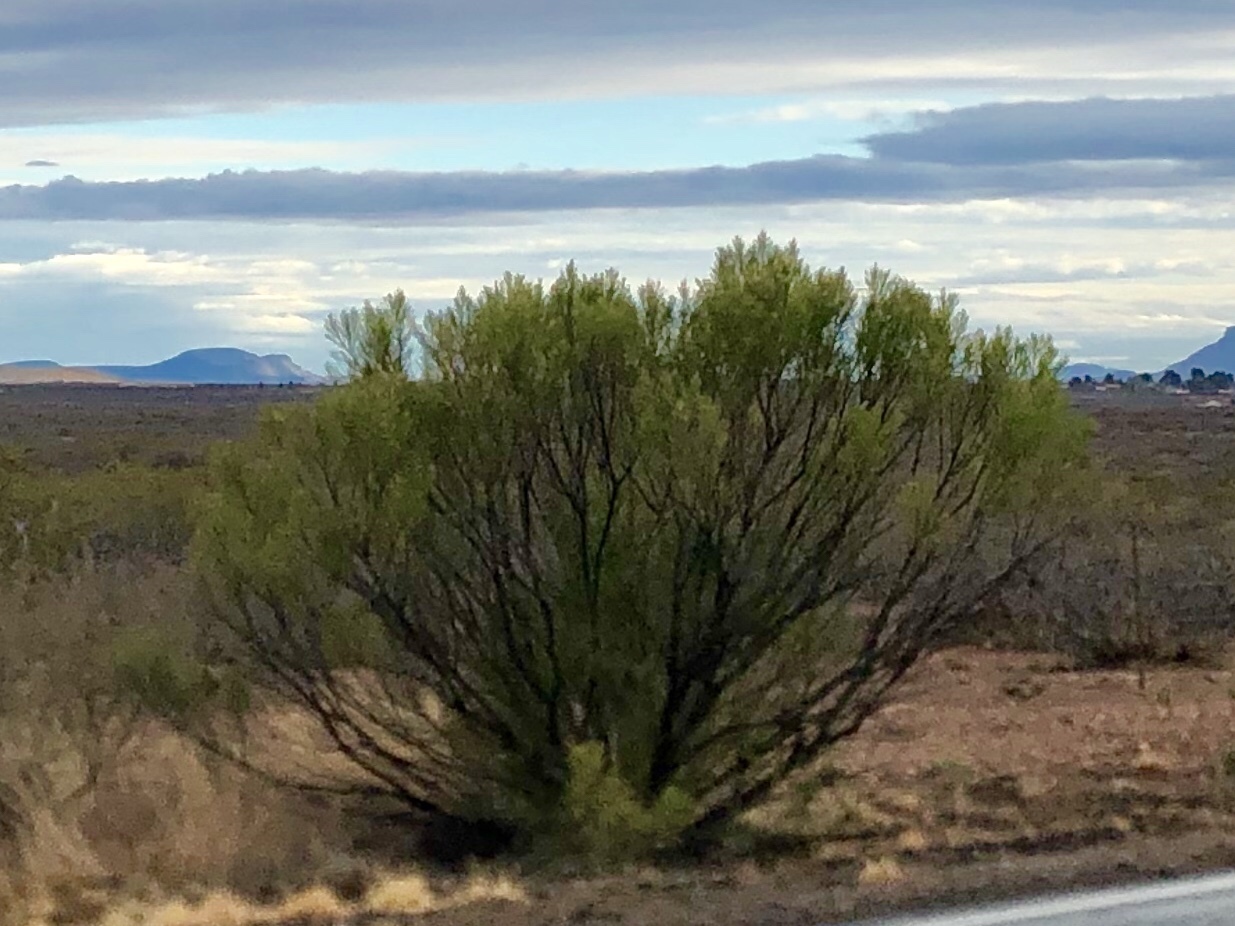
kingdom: Plantae
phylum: Tracheophyta
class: Magnoliopsida
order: Asterales
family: Asteraceae
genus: Baccharis
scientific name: Baccharis sarothroides
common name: Desert-broom
